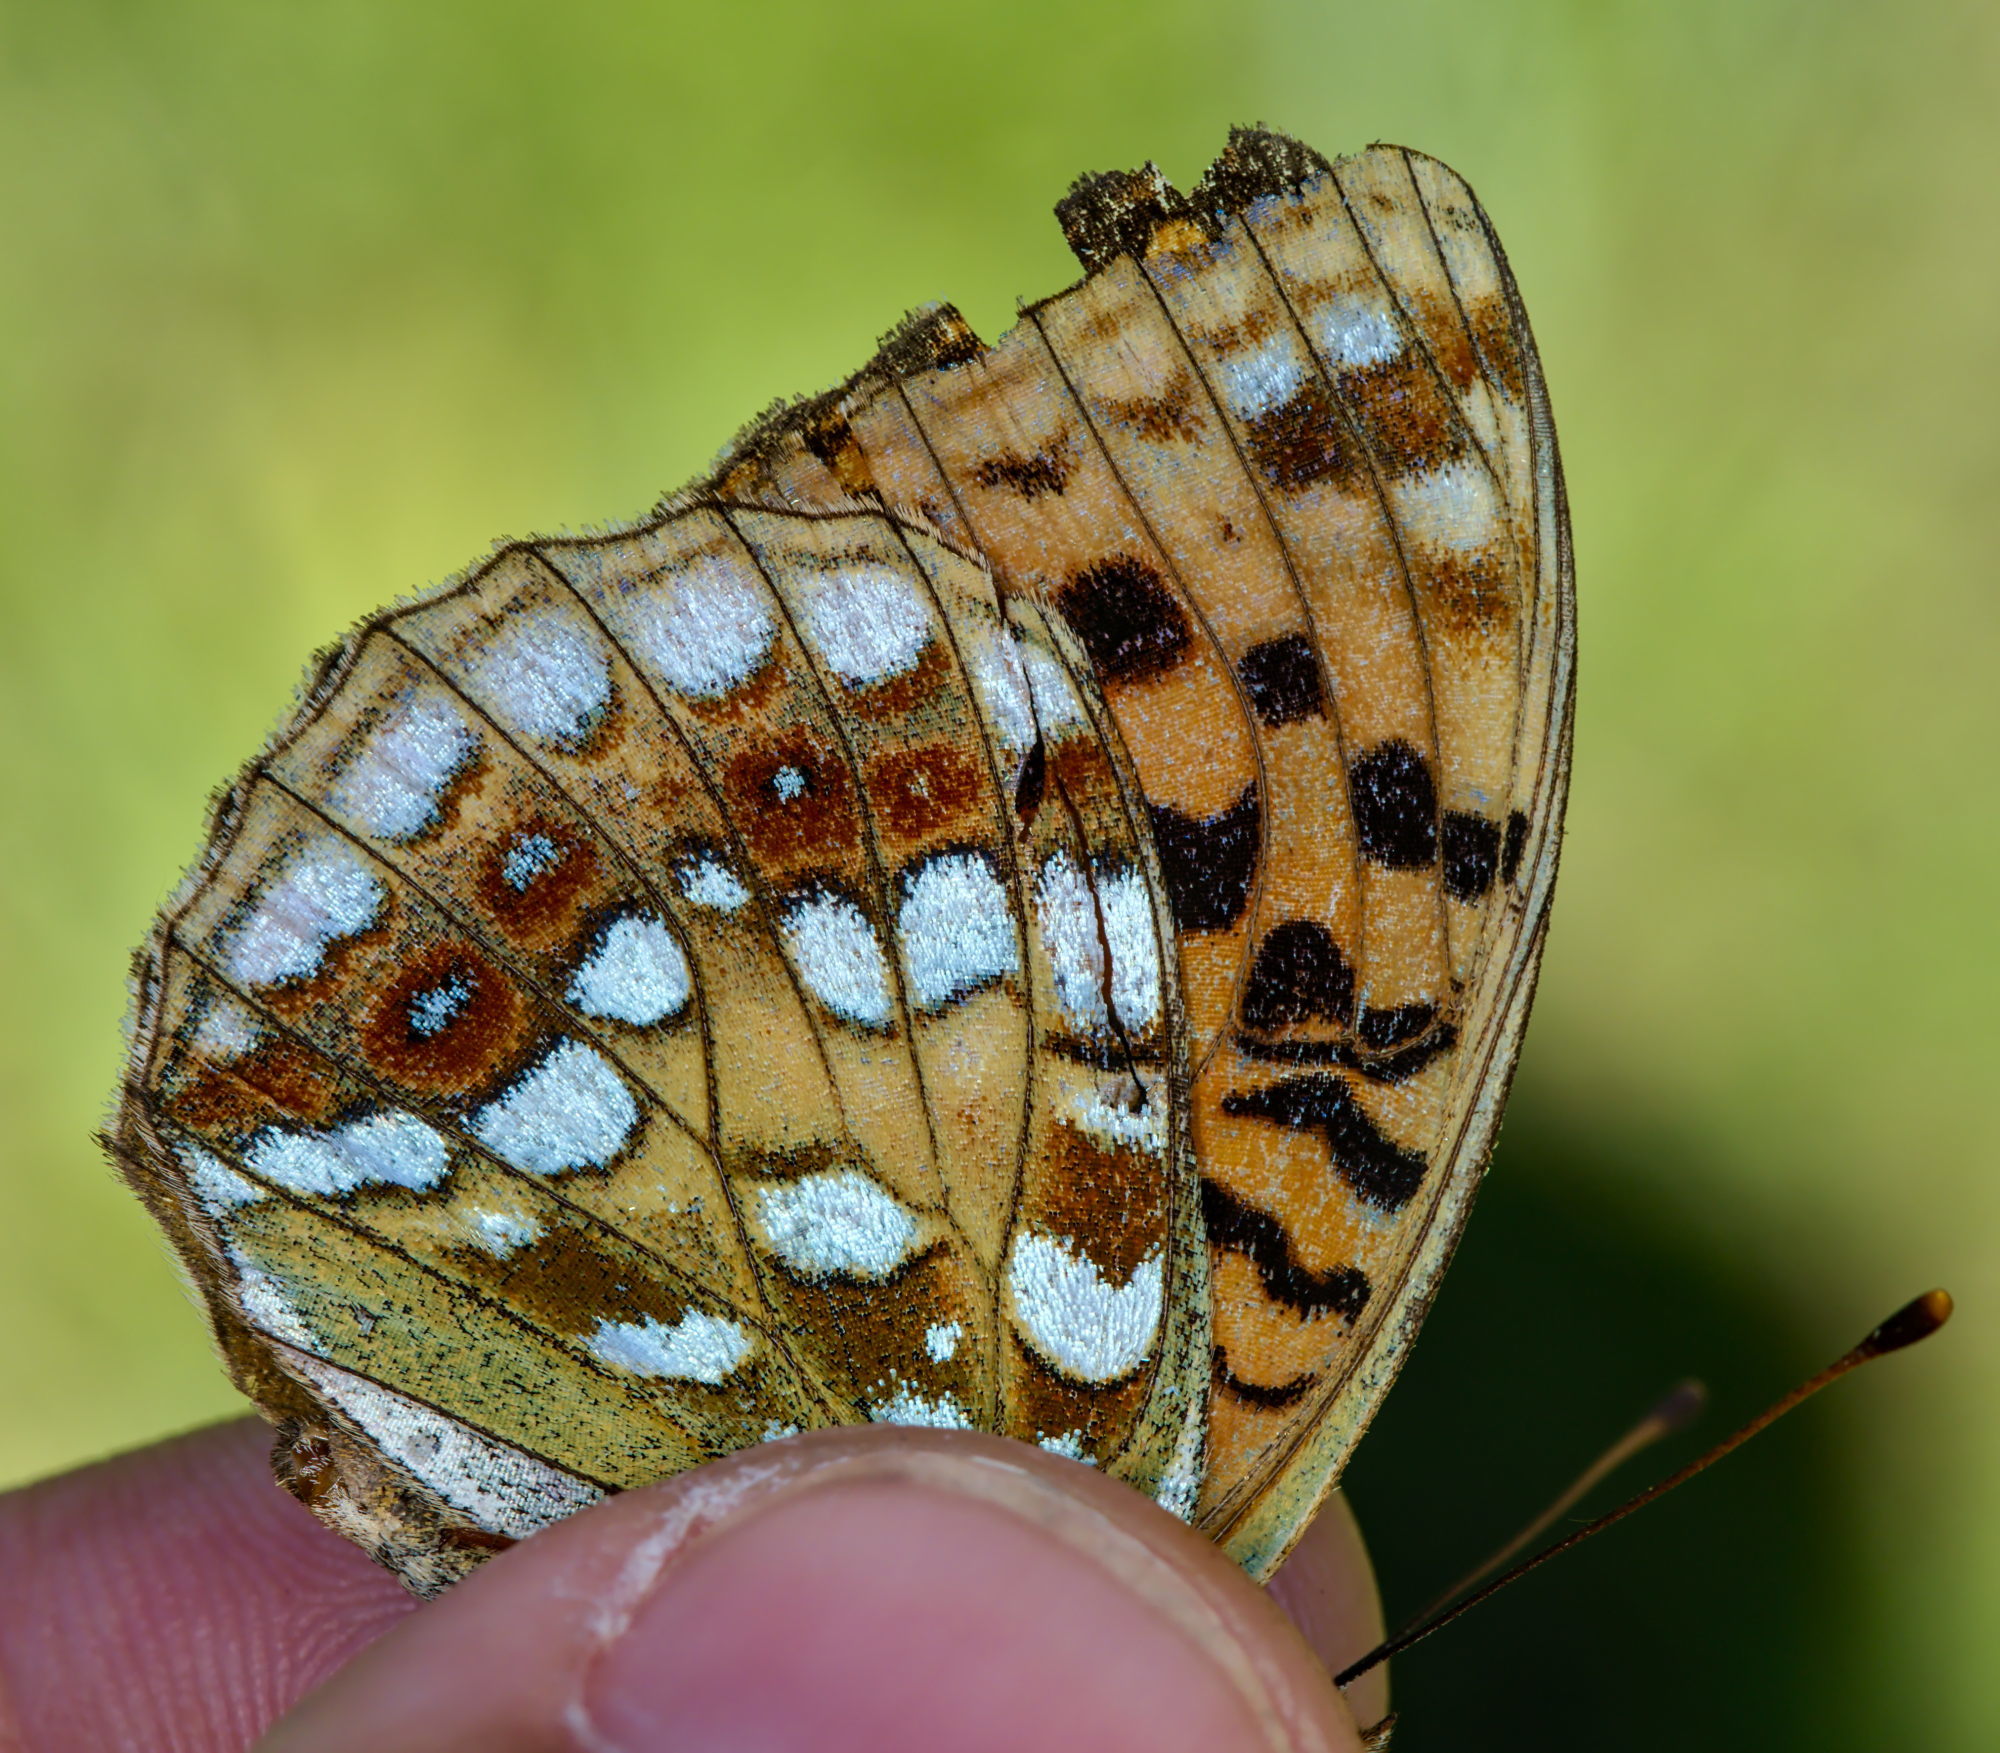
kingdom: Animalia
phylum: Arthropoda
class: Insecta
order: Lepidoptera
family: Nymphalidae
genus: Fabriciana
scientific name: Fabriciana adippe
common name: High brown fritillary
